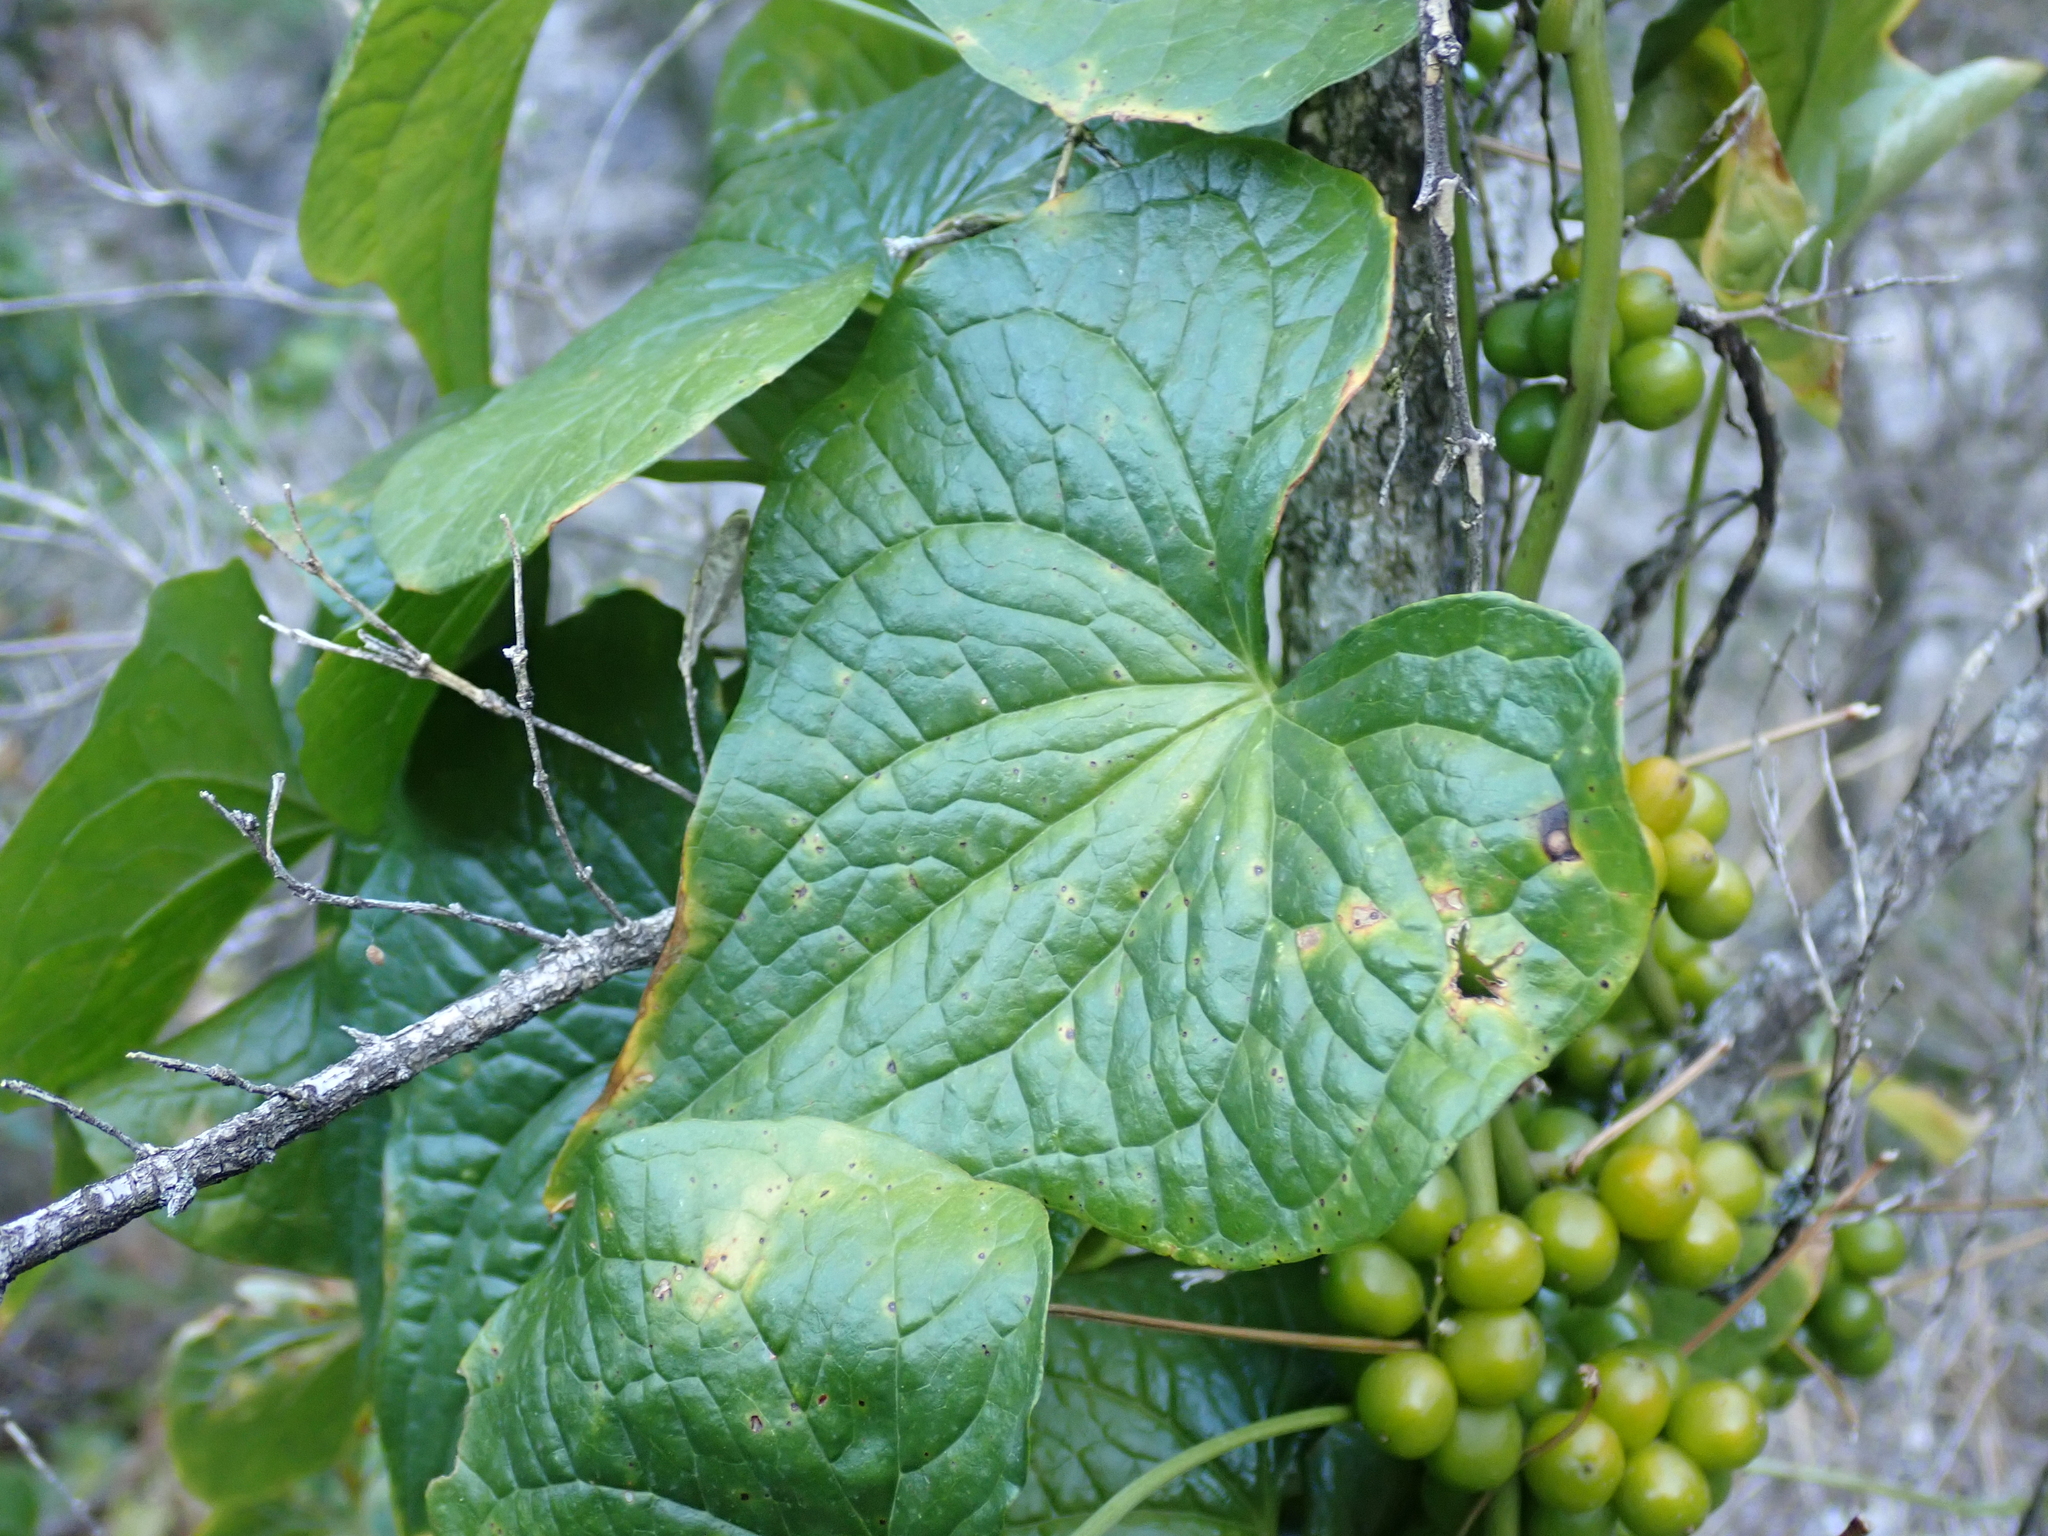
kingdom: Plantae
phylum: Tracheophyta
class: Liliopsida
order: Dioscoreales
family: Dioscoreaceae
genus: Dioscorea
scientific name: Dioscorea communis
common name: Black-bindweed
